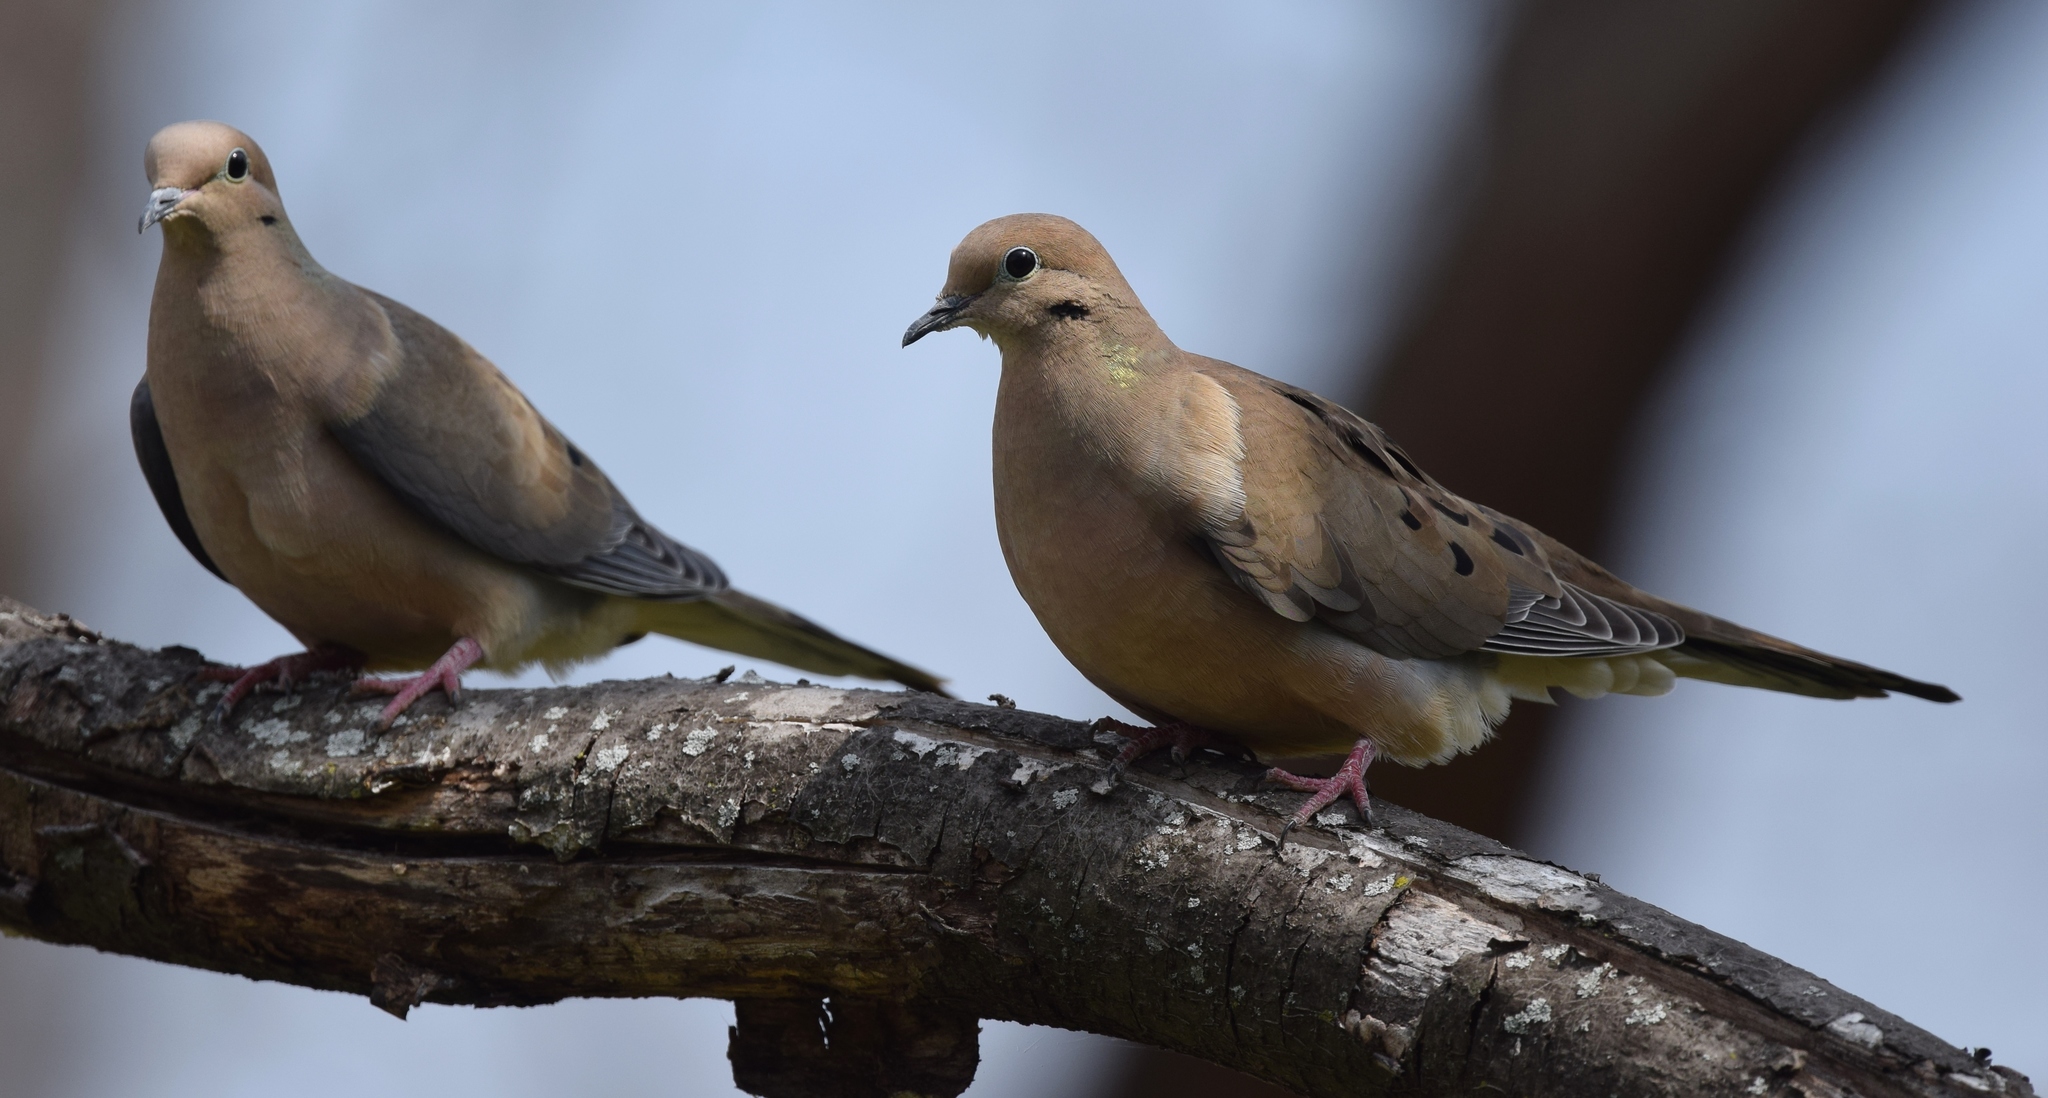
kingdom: Animalia
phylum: Chordata
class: Aves
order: Columbiformes
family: Columbidae
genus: Zenaida
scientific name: Zenaida macroura
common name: Mourning dove
